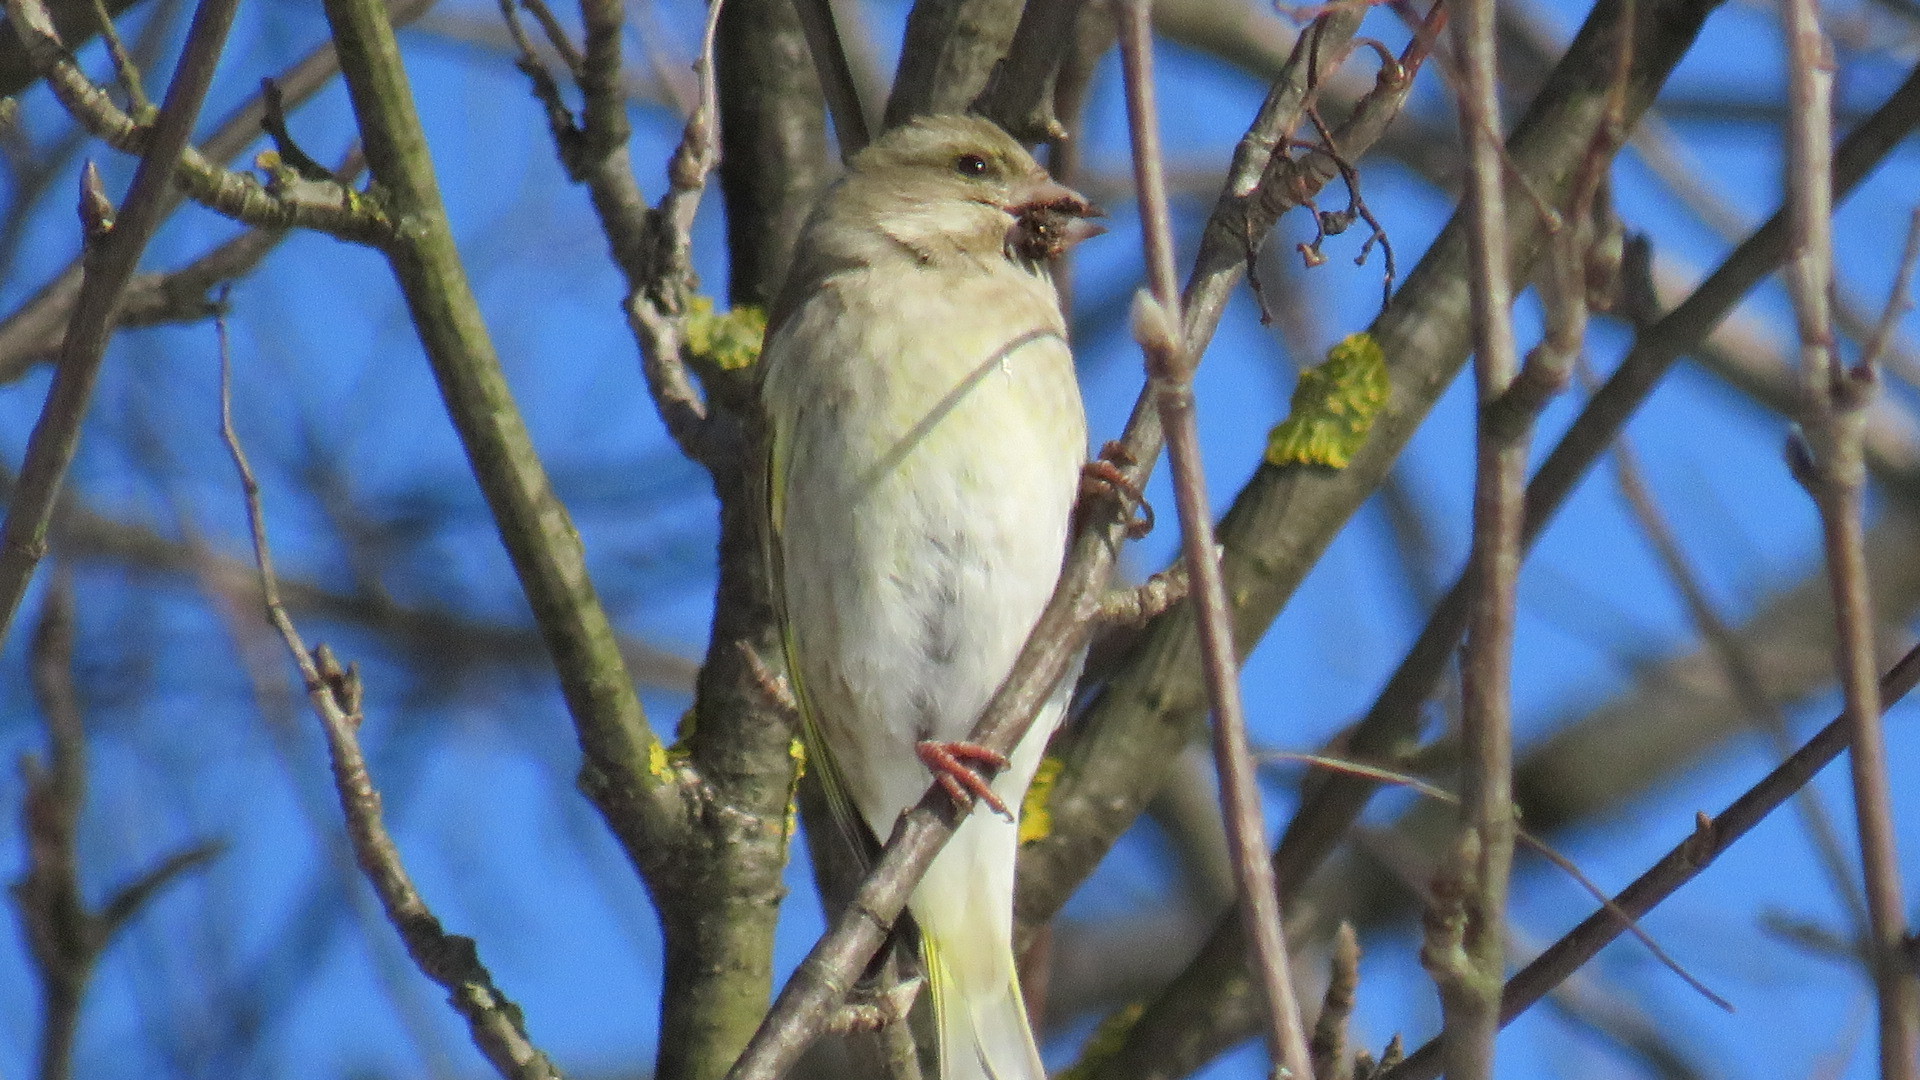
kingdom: Plantae
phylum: Tracheophyta
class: Liliopsida
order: Poales
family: Poaceae
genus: Chloris
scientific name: Chloris chloris
